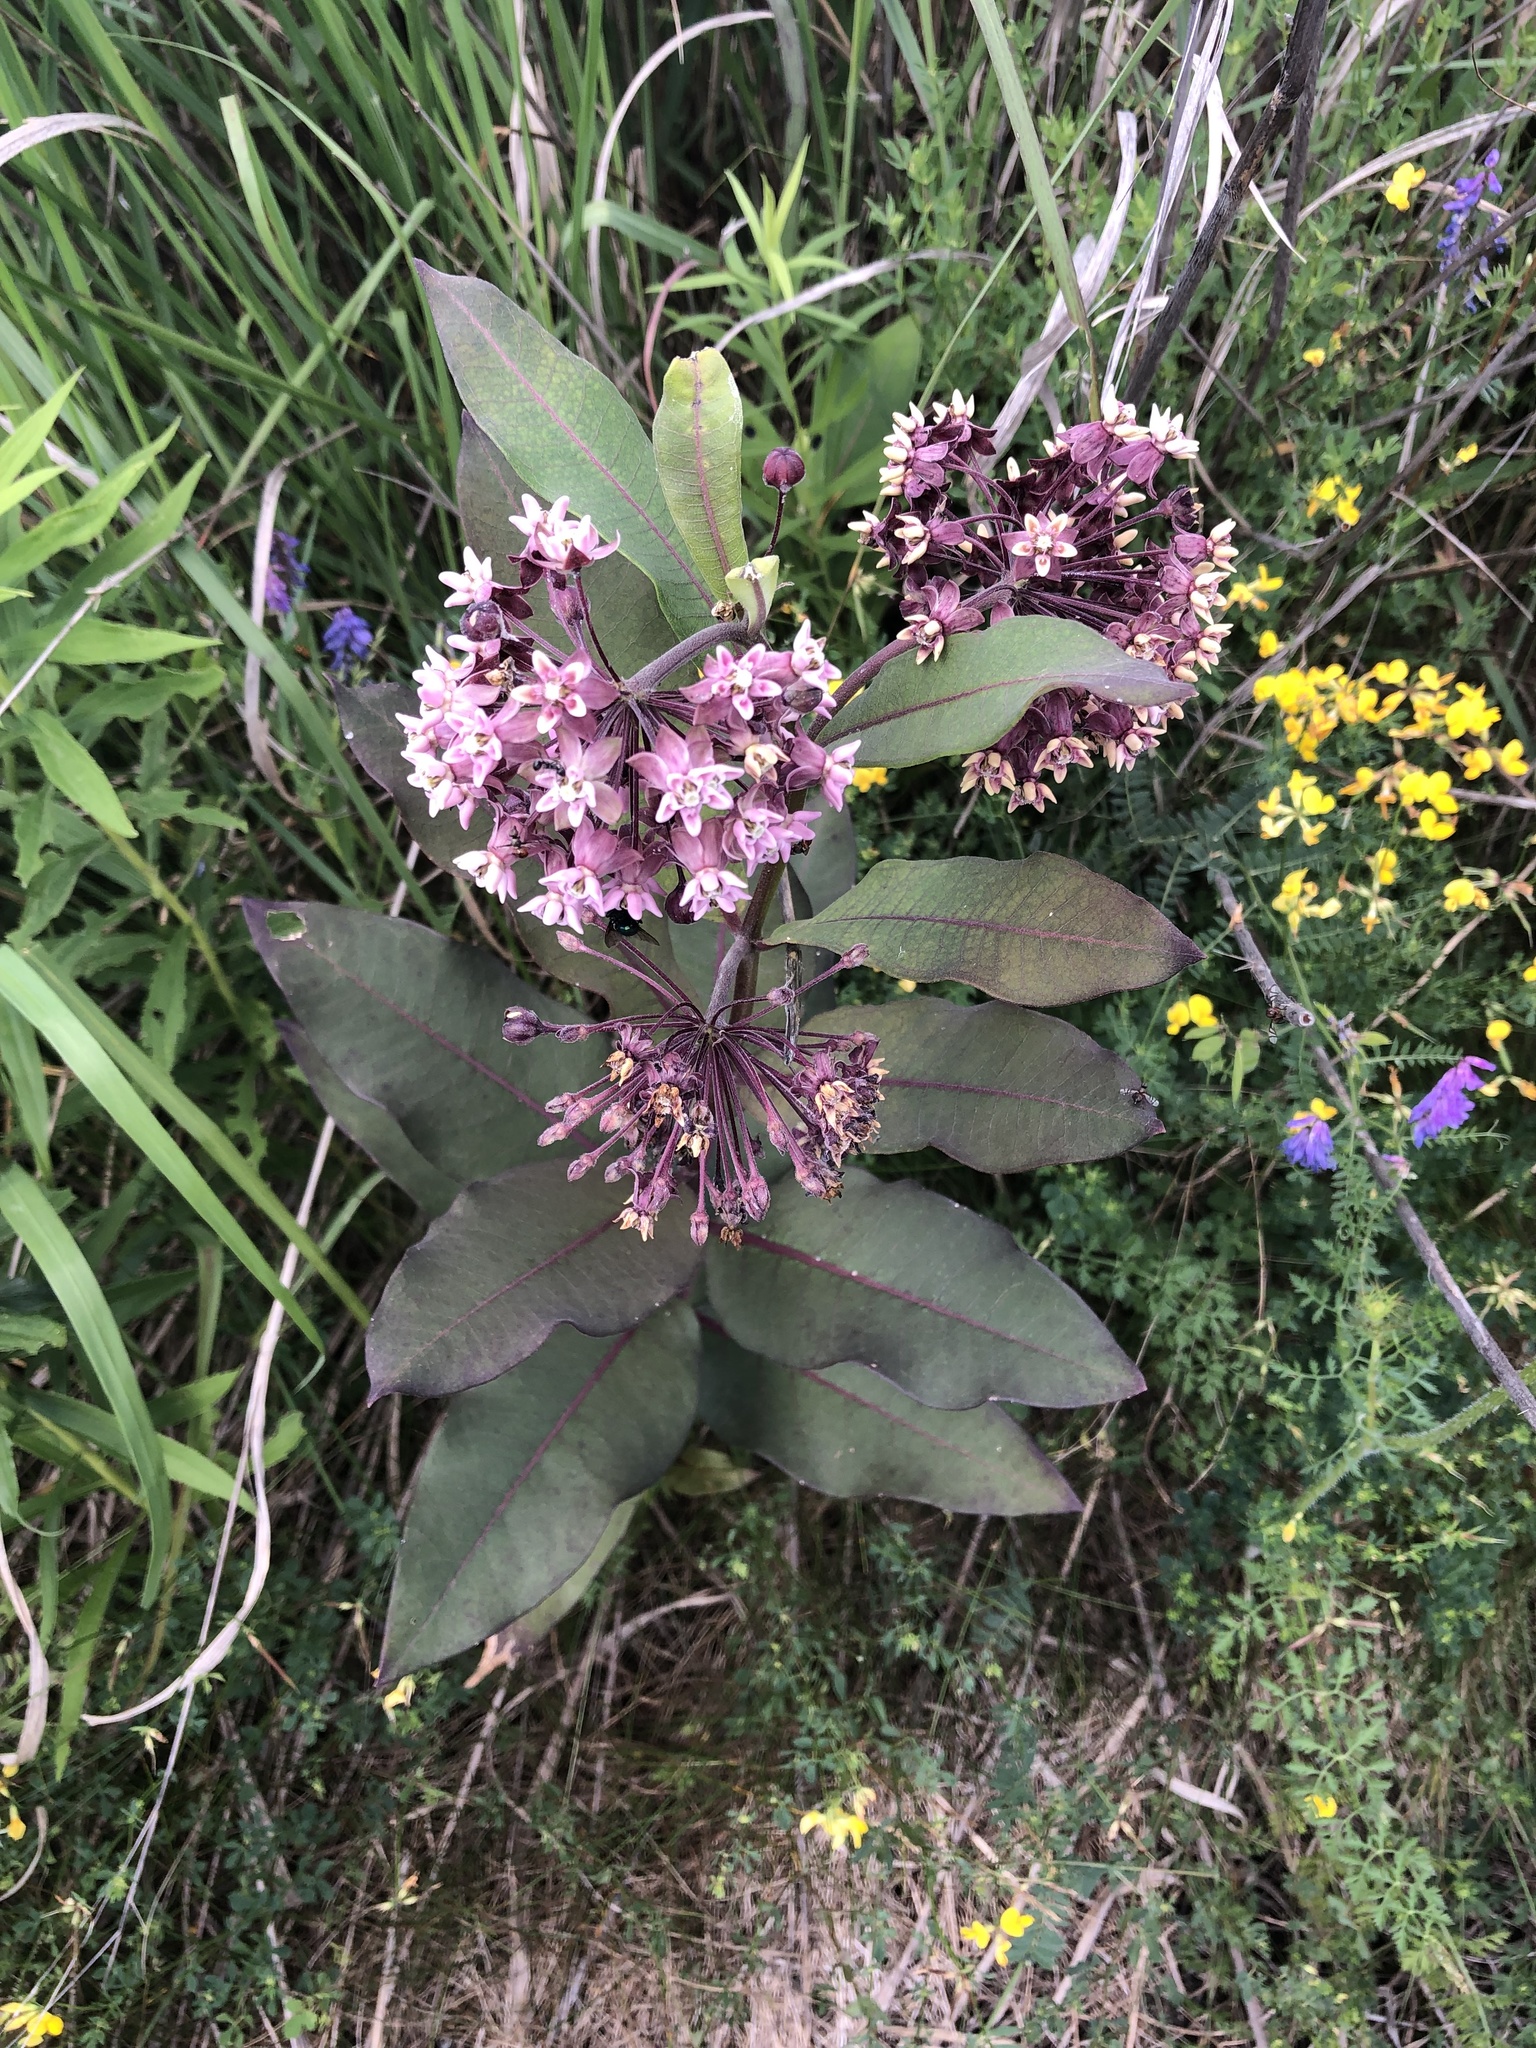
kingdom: Plantae
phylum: Tracheophyta
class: Magnoliopsida
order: Gentianales
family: Apocynaceae
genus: Asclepias
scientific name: Asclepias syriaca
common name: Common milkweed
